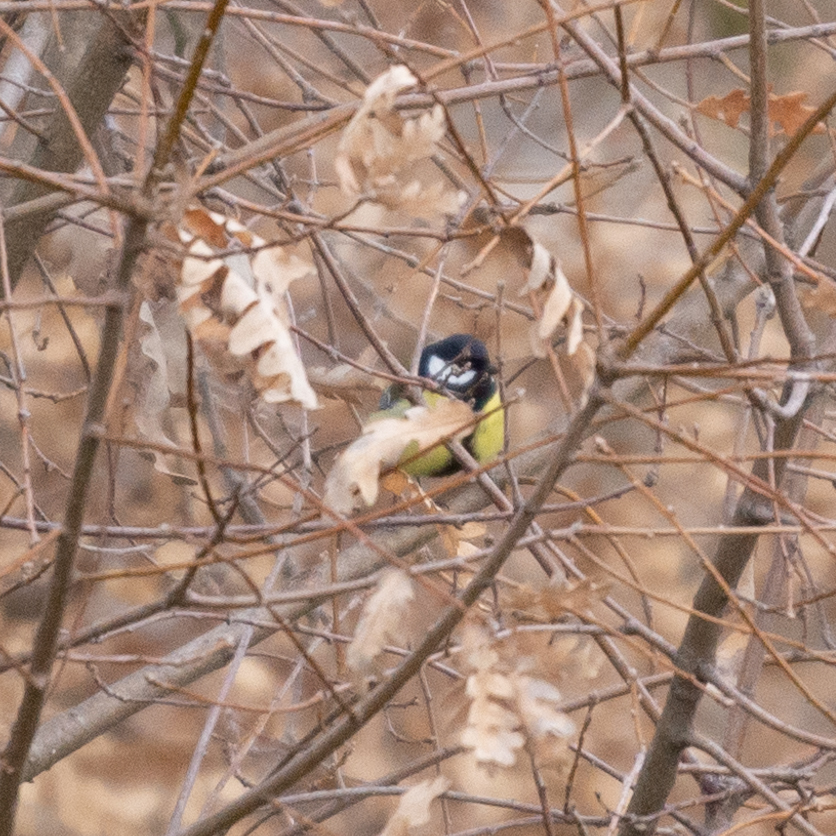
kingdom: Animalia
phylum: Chordata
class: Aves
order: Passeriformes
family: Paridae
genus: Parus
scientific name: Parus major
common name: Great tit
